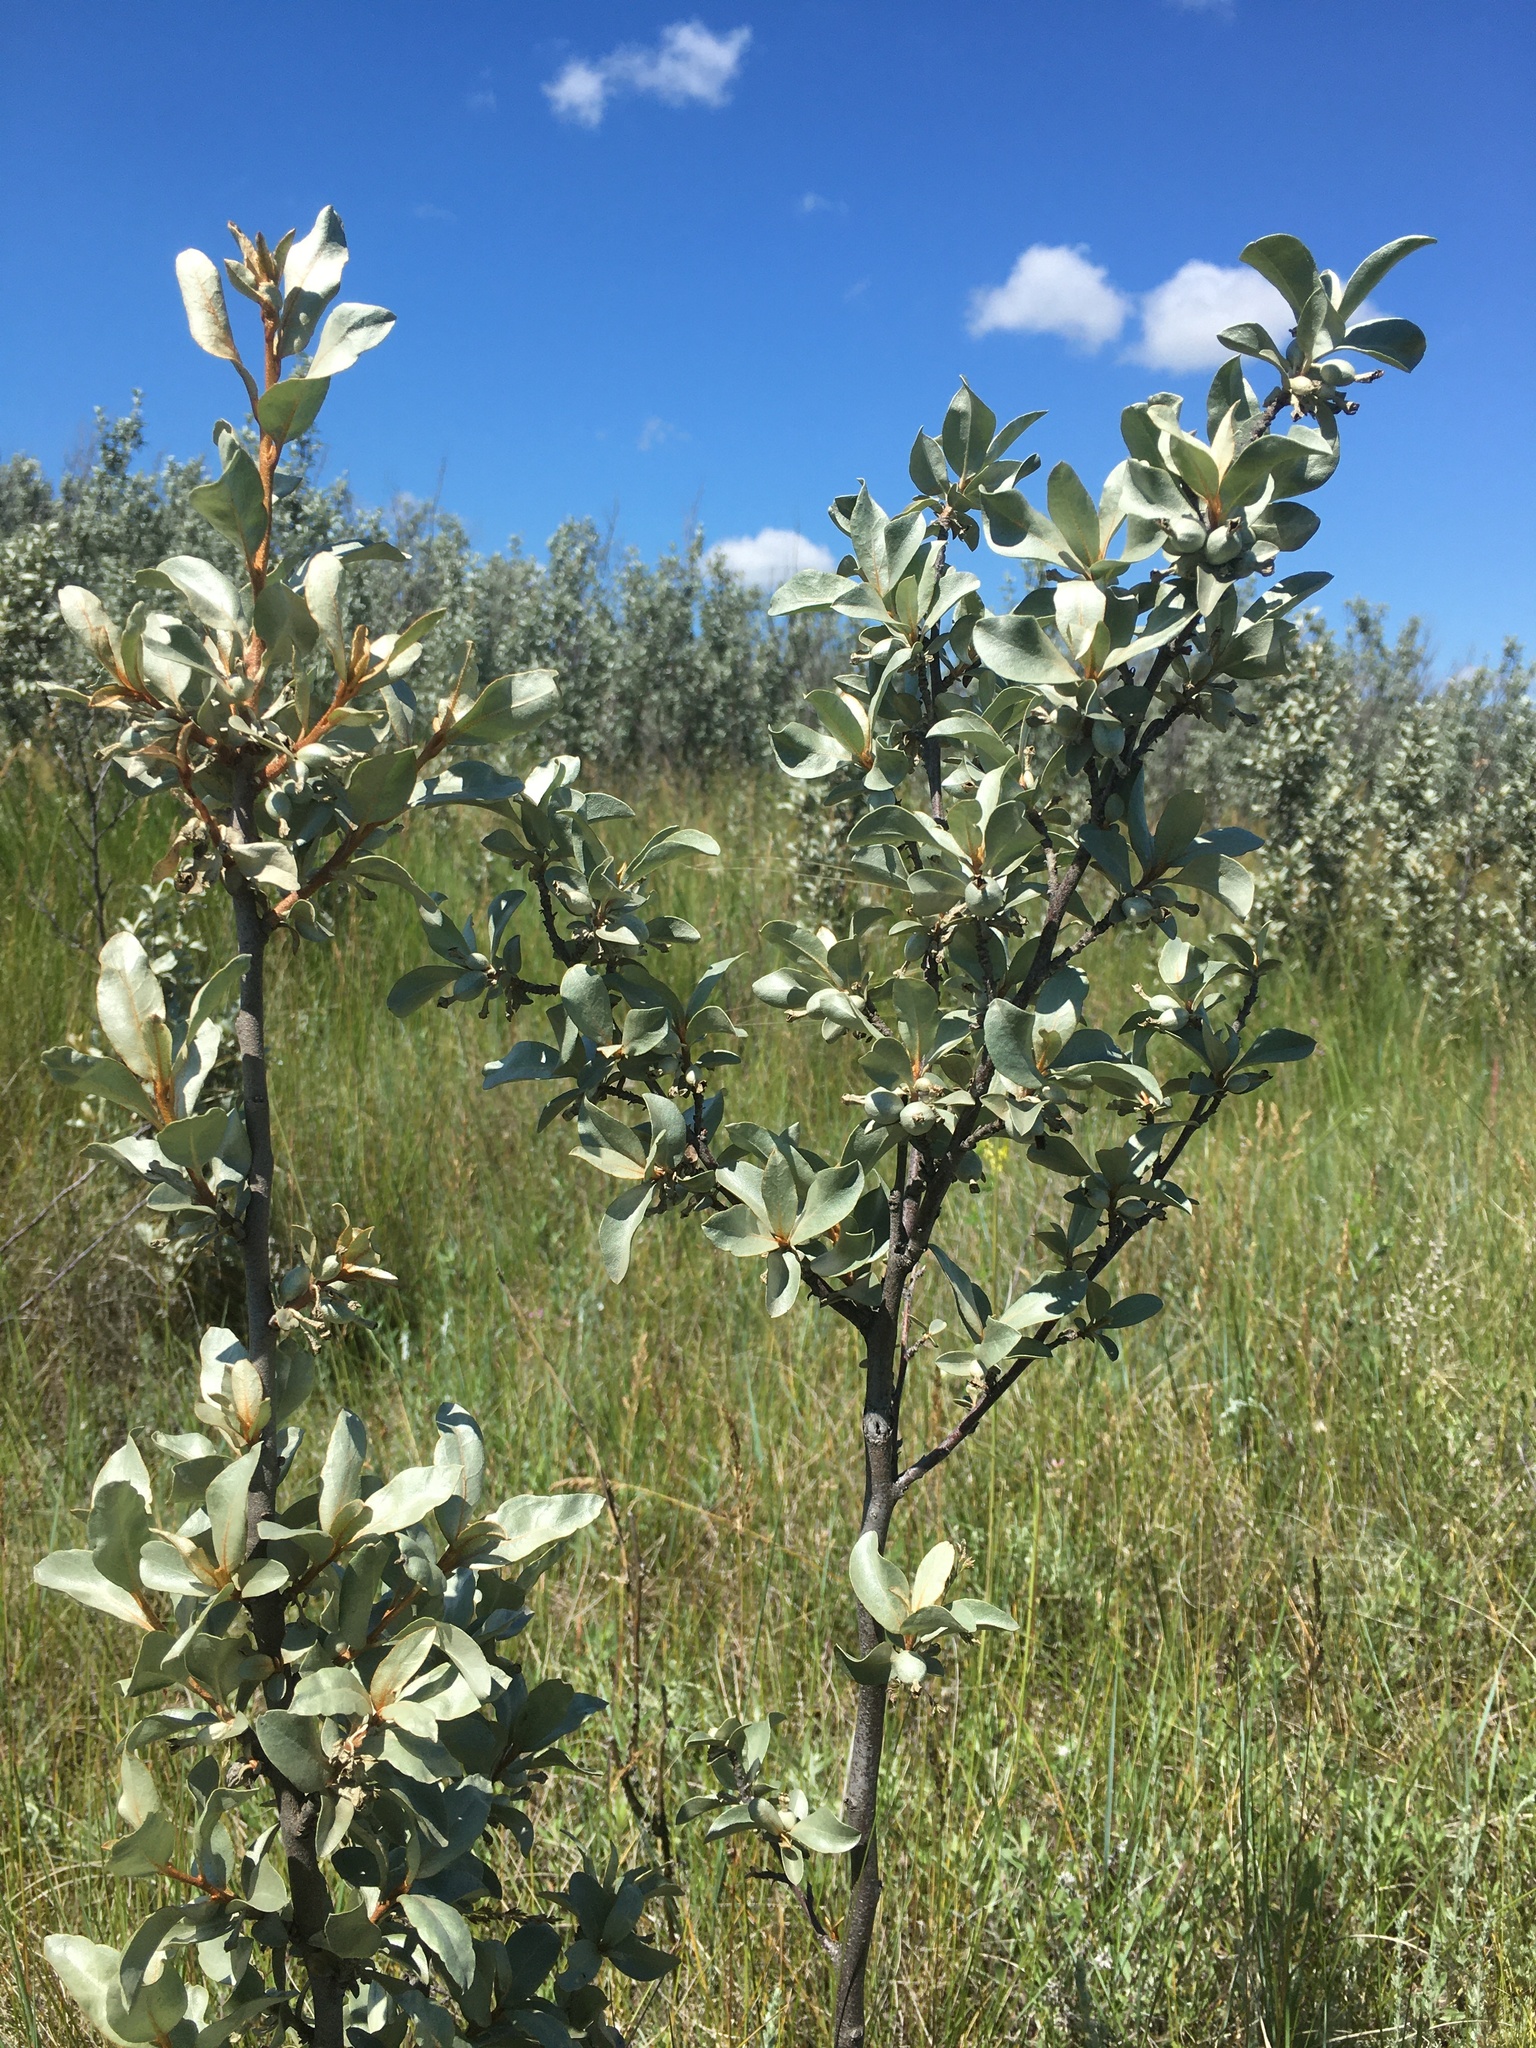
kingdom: Plantae
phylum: Tracheophyta
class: Magnoliopsida
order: Rosales
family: Elaeagnaceae
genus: Elaeagnus
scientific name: Elaeagnus commutata
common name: Silverberry
